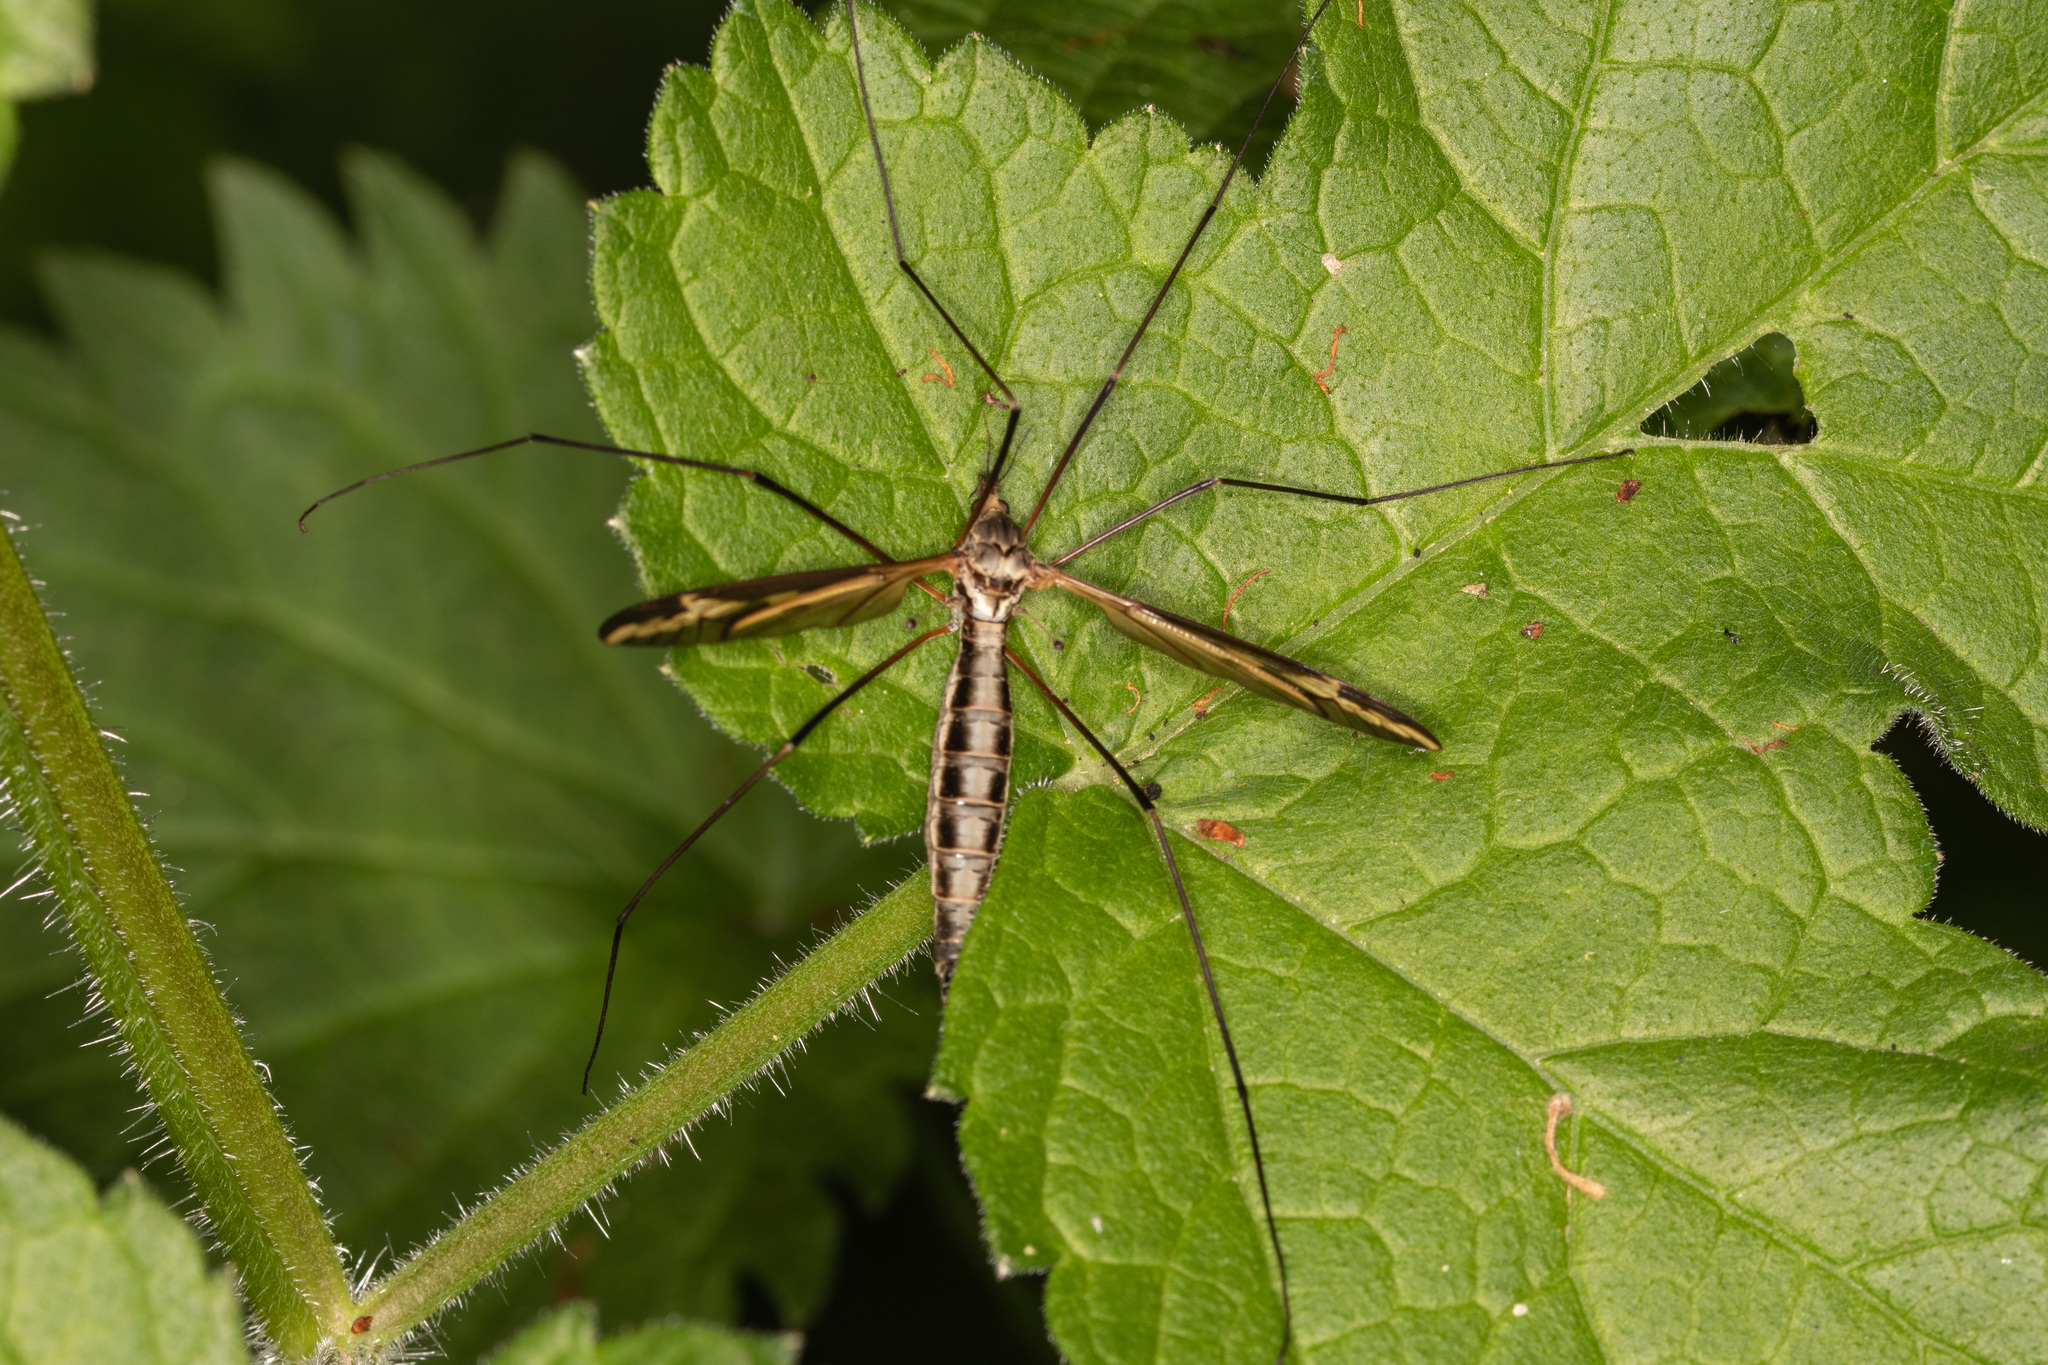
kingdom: Animalia
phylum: Arthropoda
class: Insecta
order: Diptera
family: Tipulidae
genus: Tipula
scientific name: Tipula vittata
